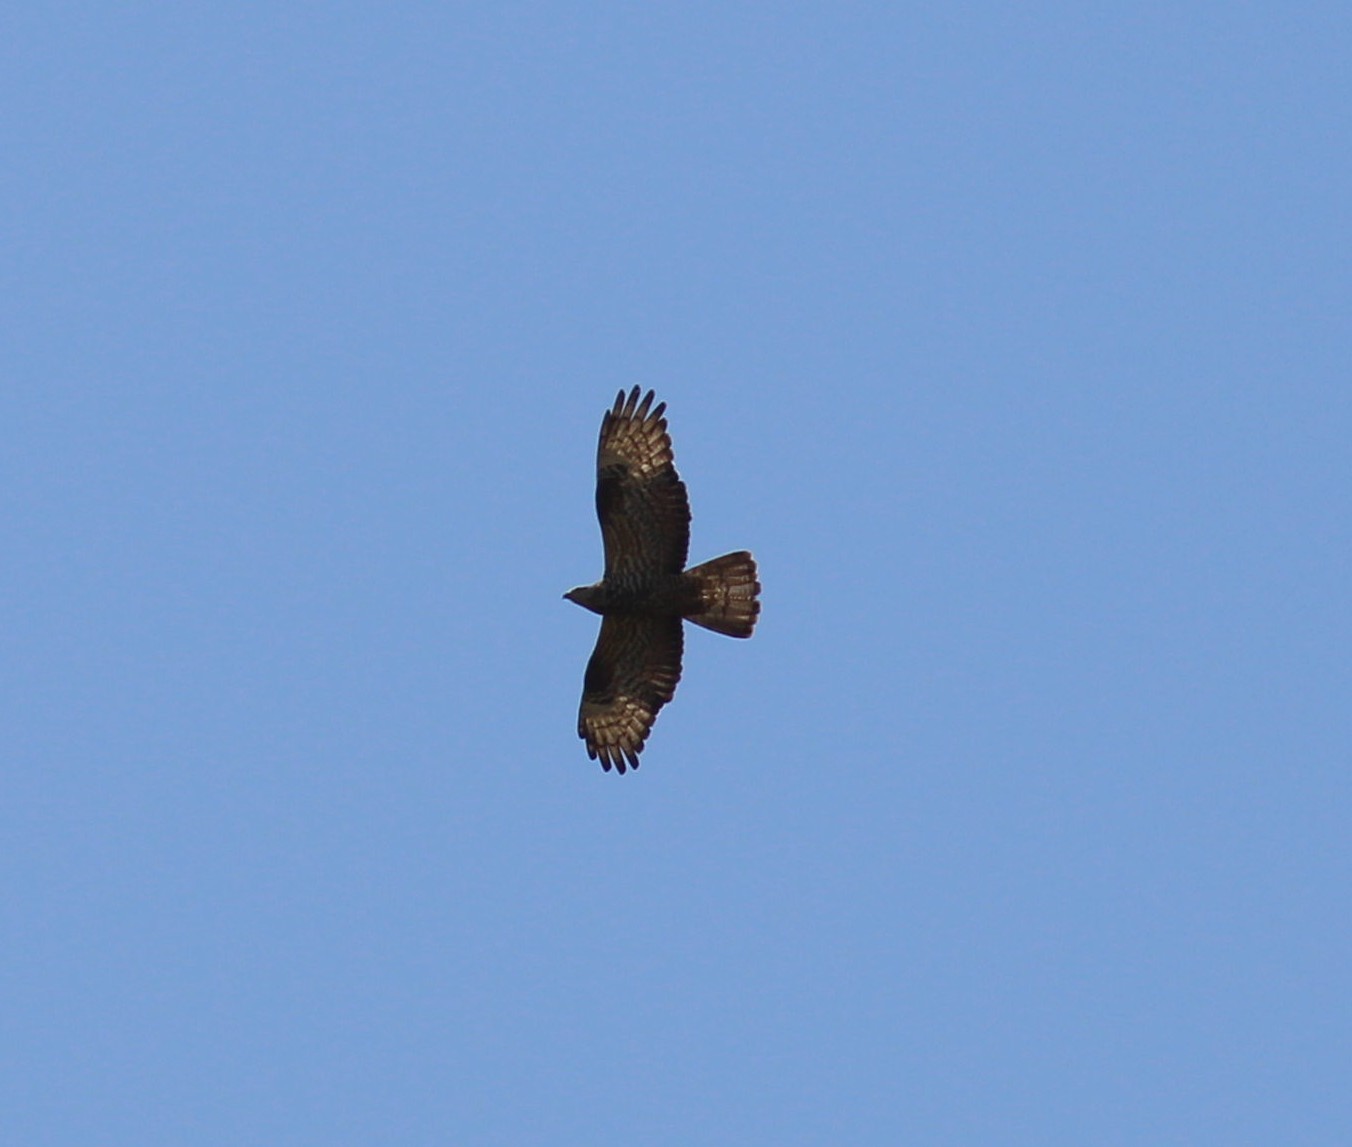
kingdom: Animalia
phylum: Chordata
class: Aves
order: Accipitriformes
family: Accipitridae
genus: Pernis
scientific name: Pernis apivorus
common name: European honey buzzard
